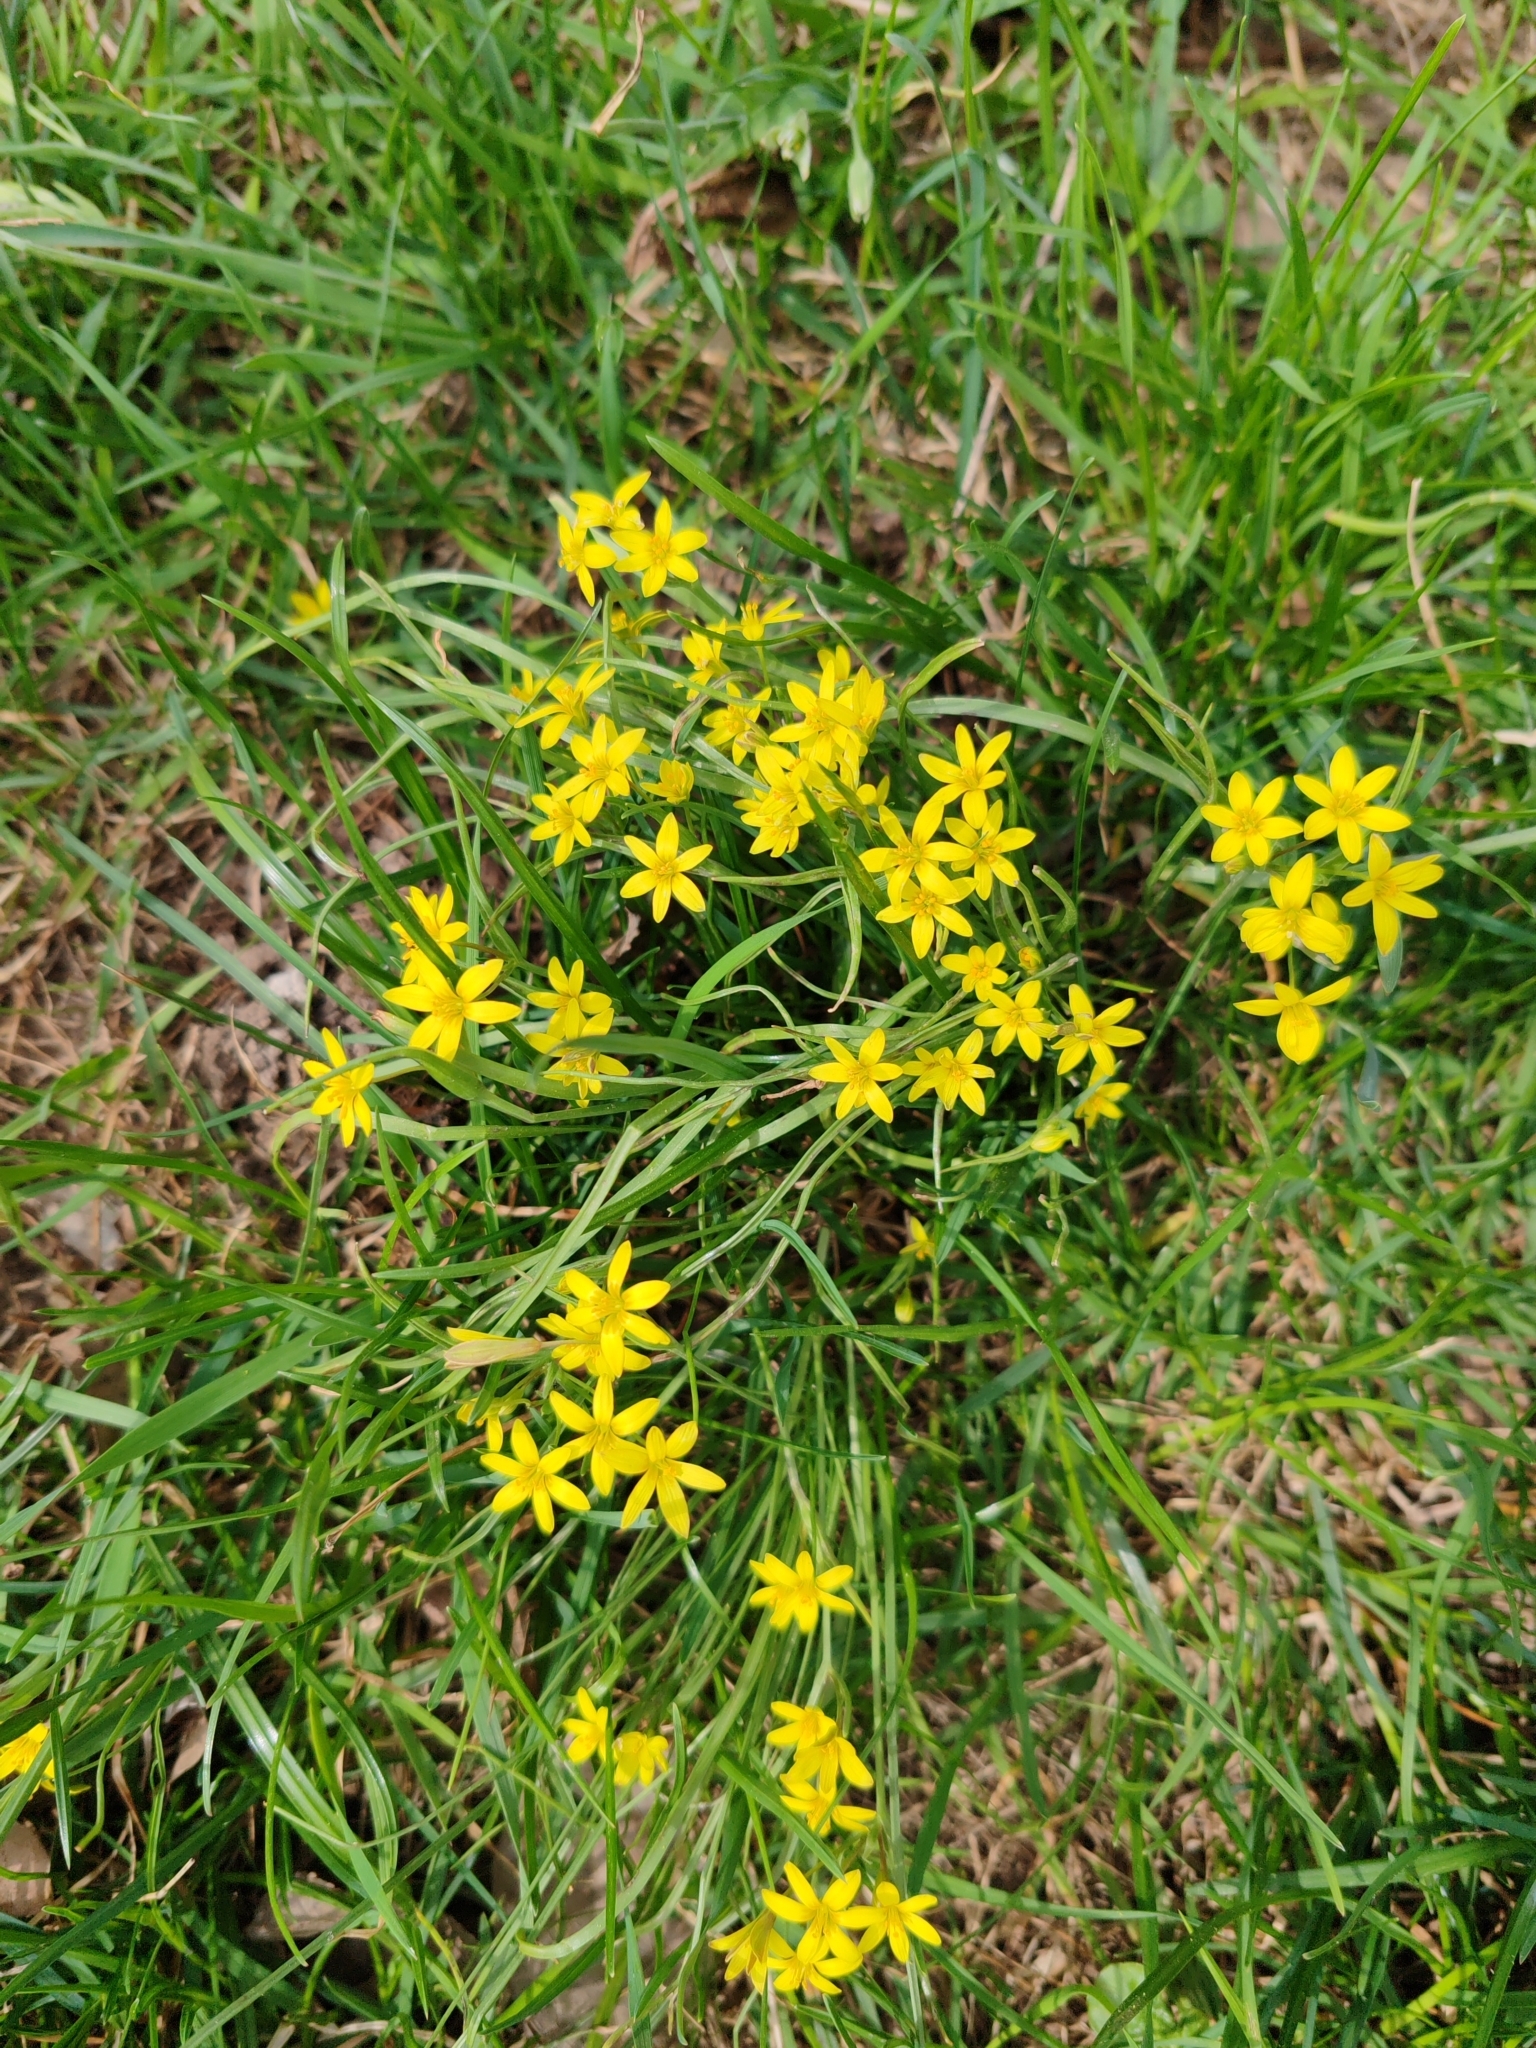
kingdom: Plantae
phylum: Tracheophyta
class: Liliopsida
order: Liliales
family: Liliaceae
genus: Gagea
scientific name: Gagea pusilla
